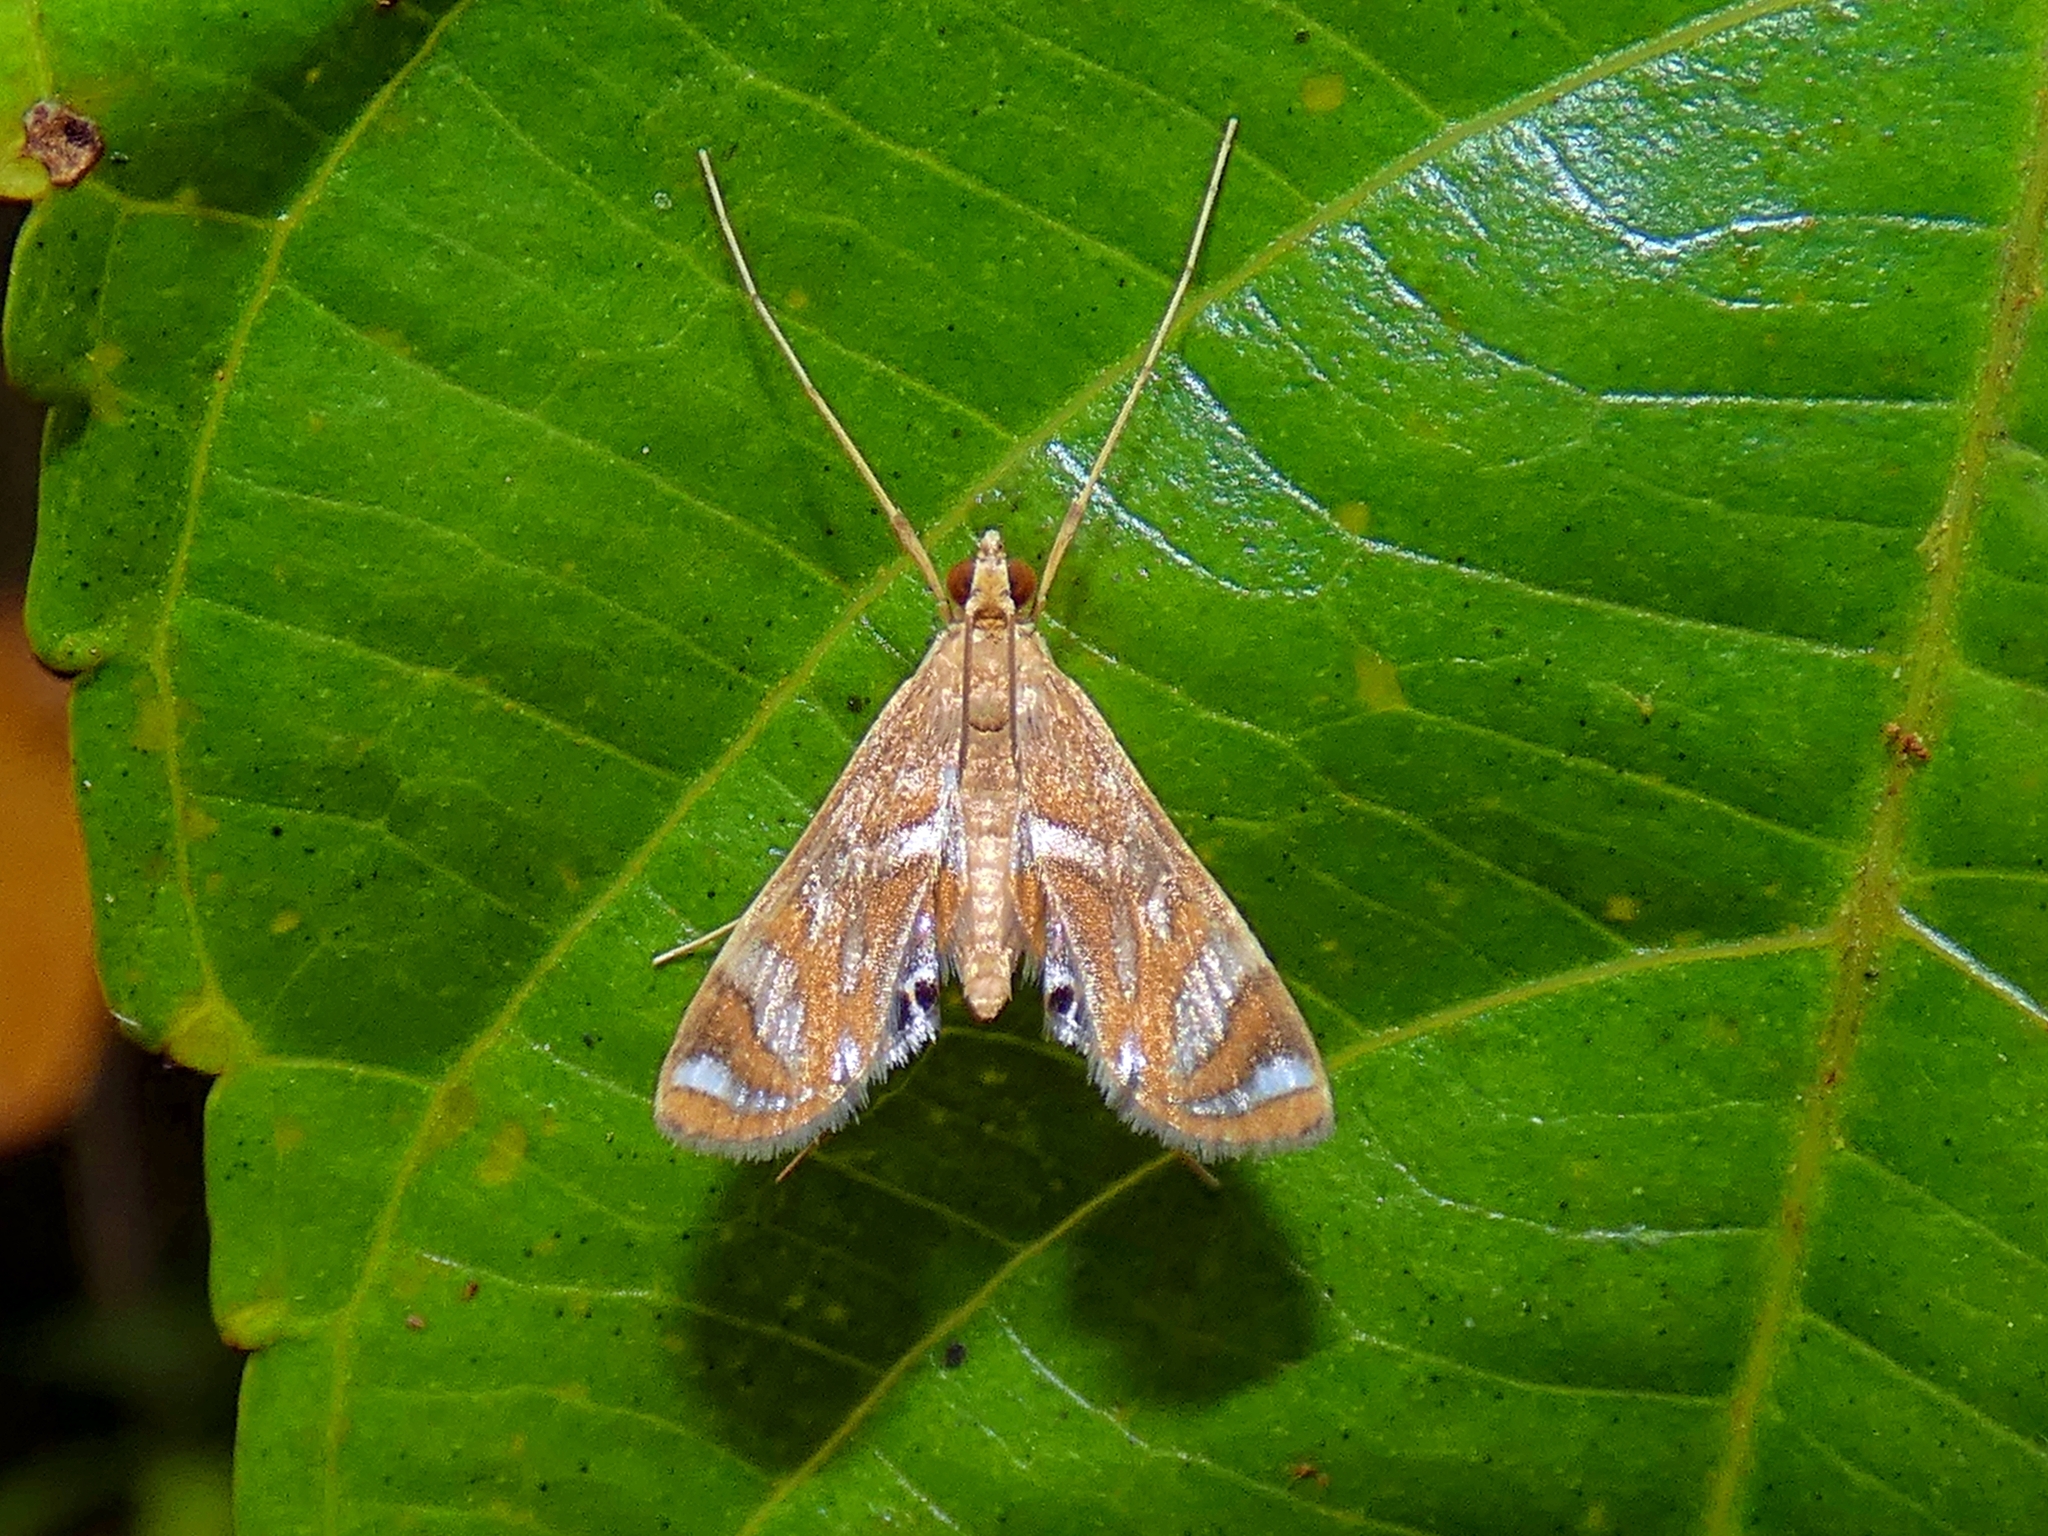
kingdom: Animalia
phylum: Arthropoda
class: Insecta
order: Lepidoptera
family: Crambidae
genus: Margarosticha
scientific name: Margarosticha euprepialis
